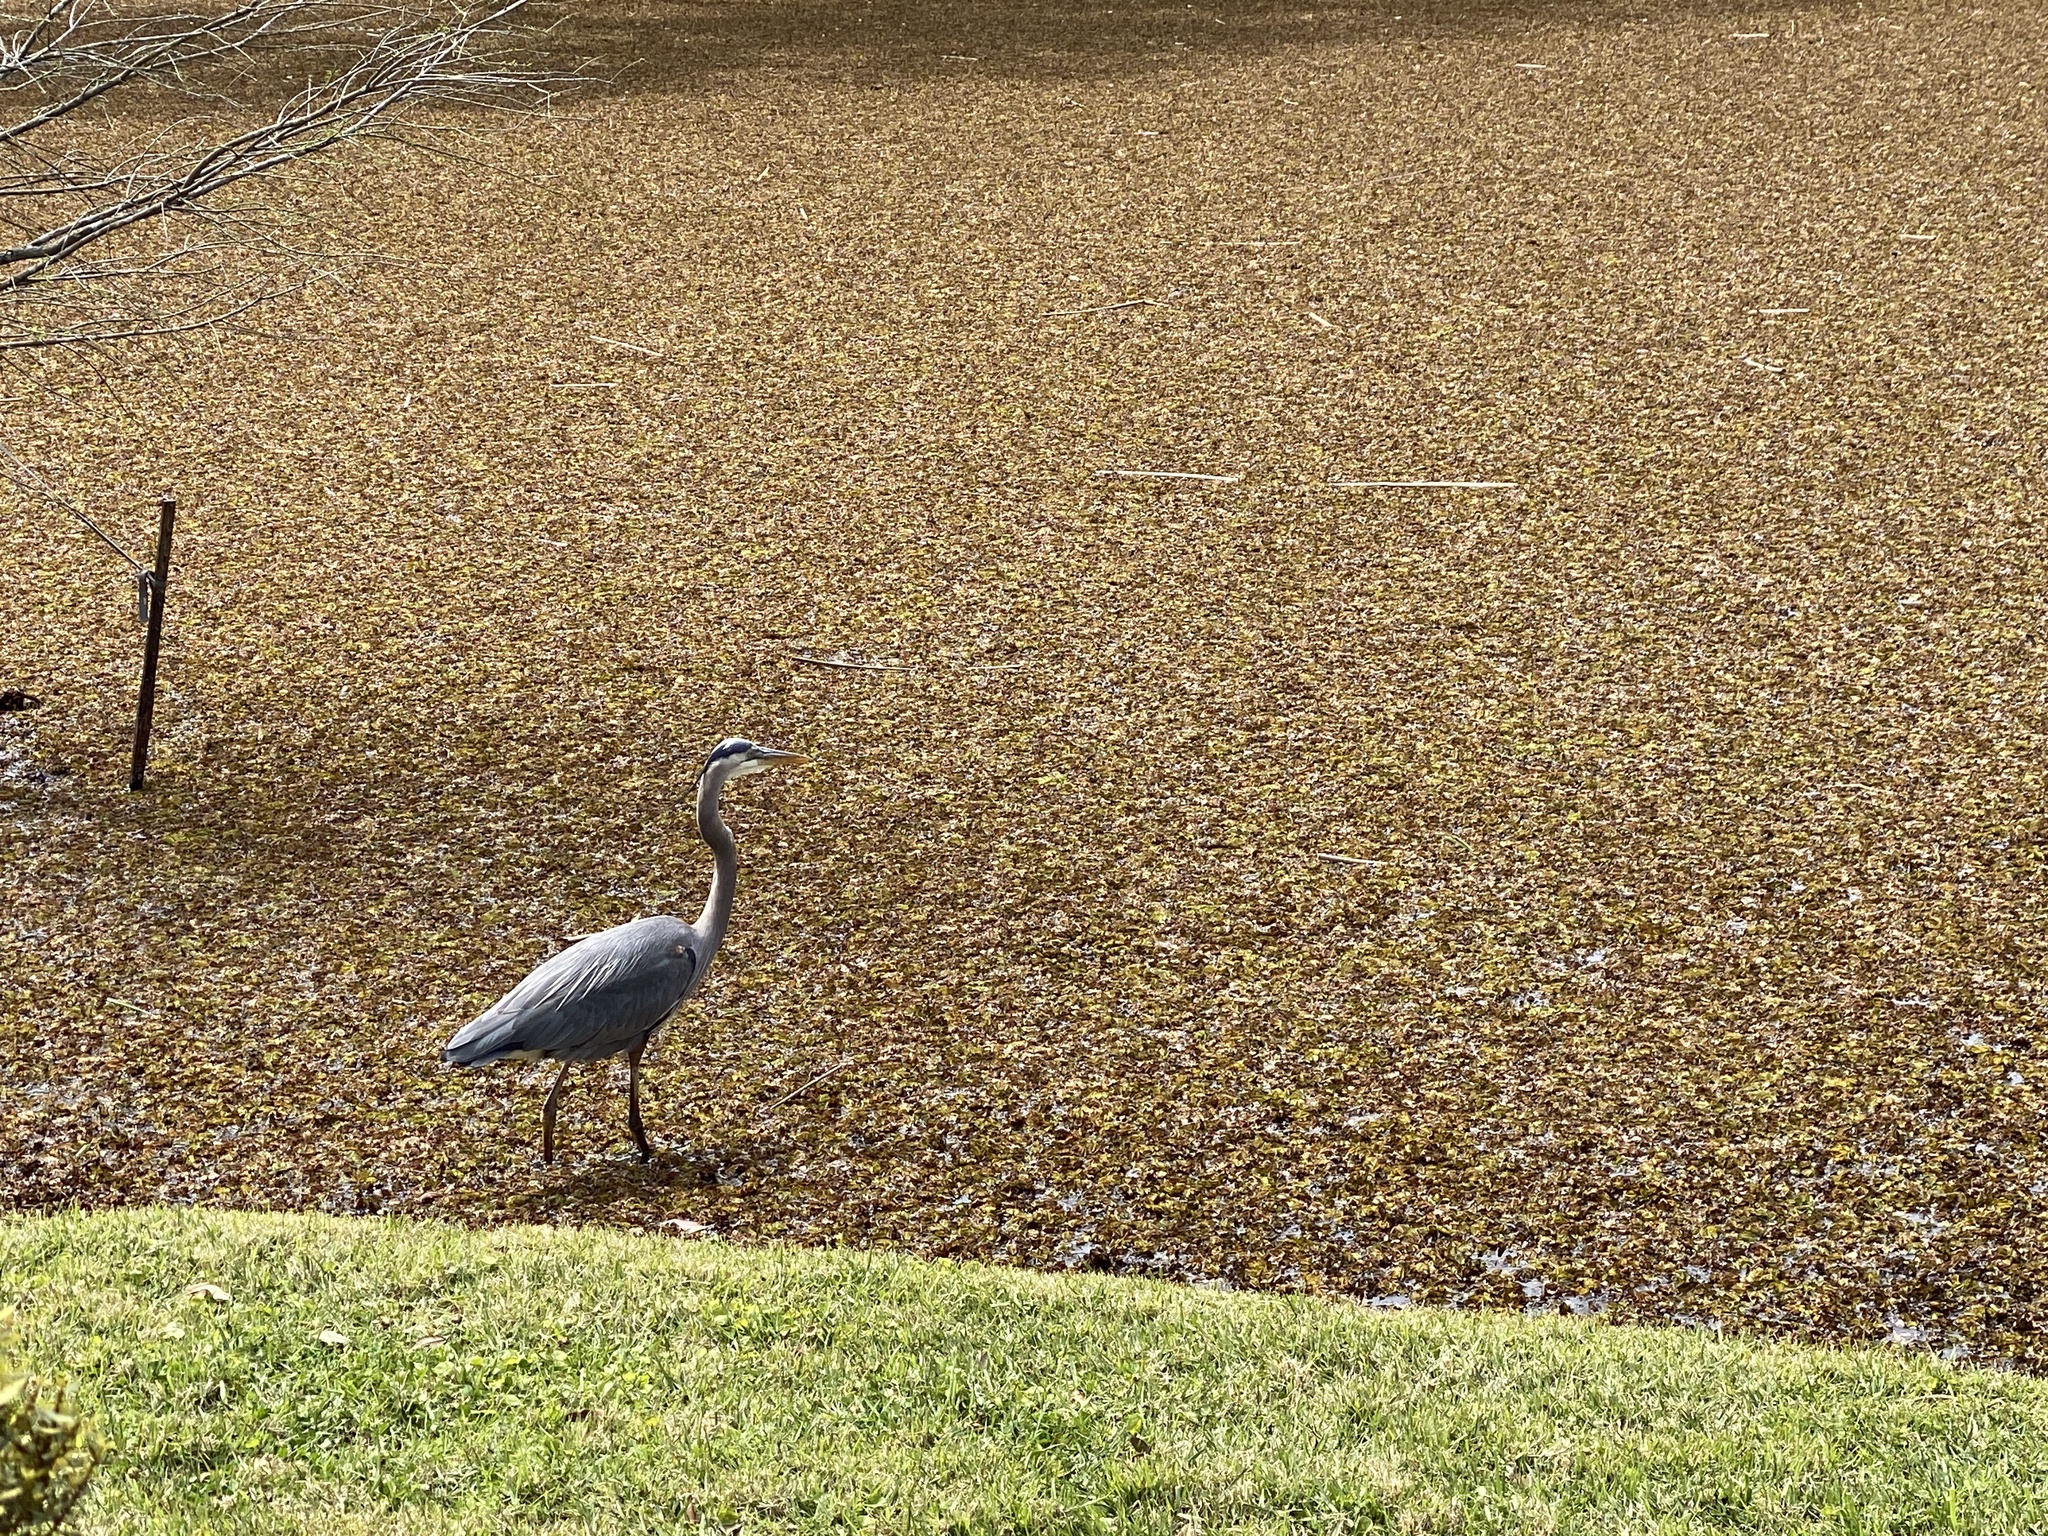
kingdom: Animalia
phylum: Chordata
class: Aves
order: Pelecaniformes
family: Ardeidae
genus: Ardea
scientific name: Ardea herodias
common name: Great blue heron
